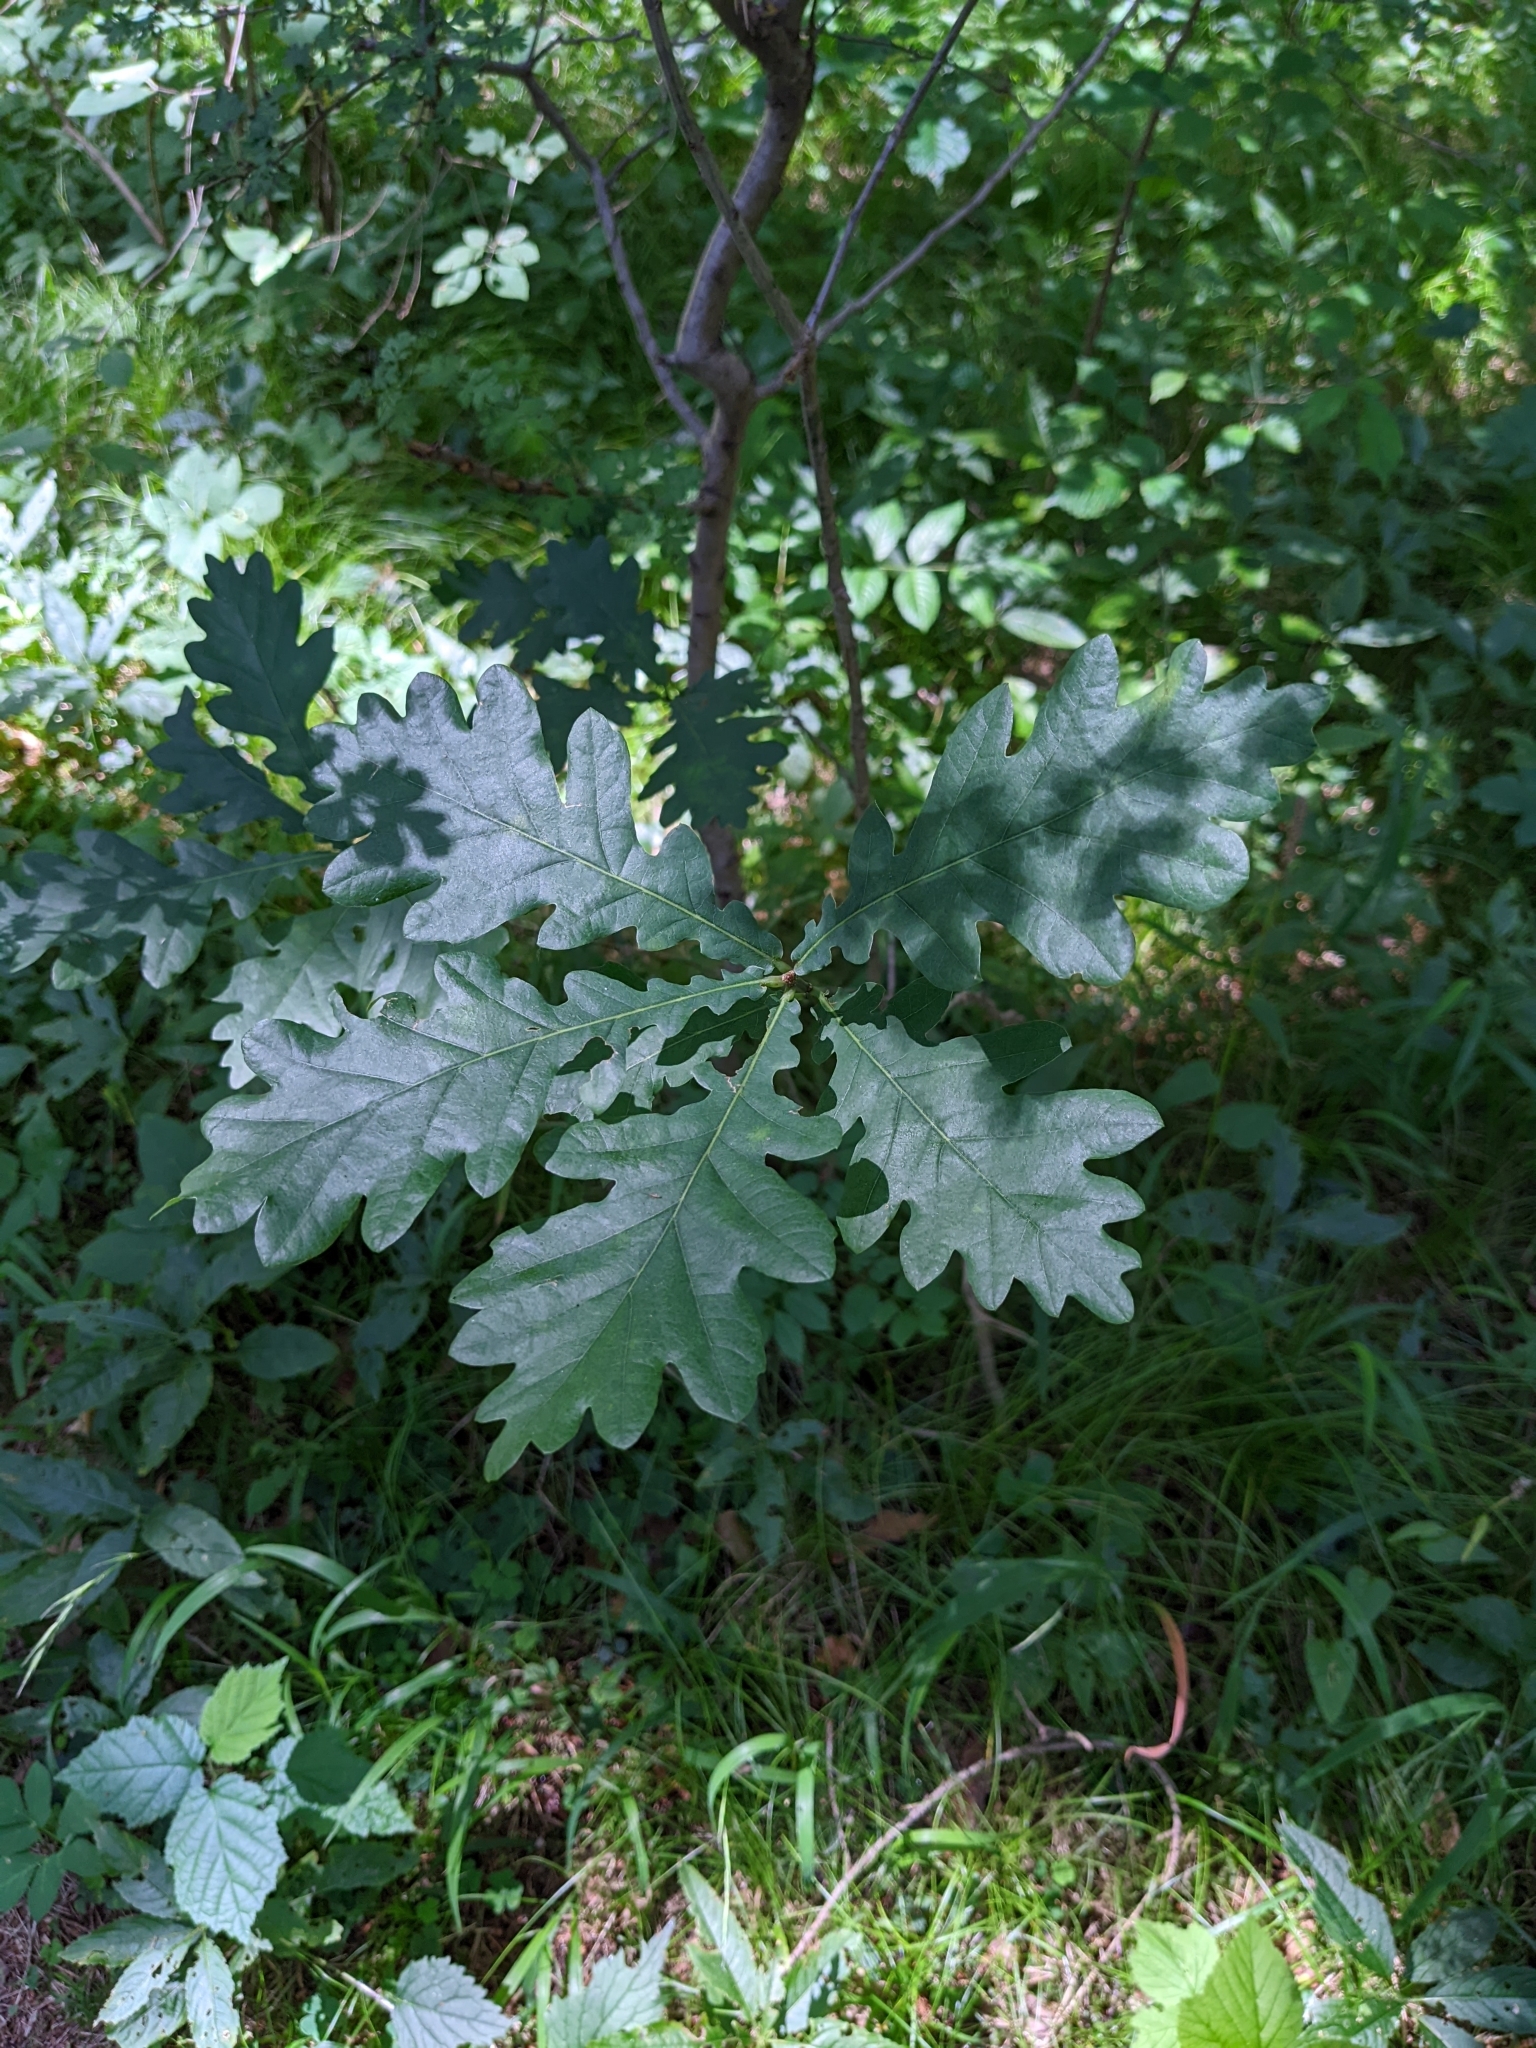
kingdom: Plantae
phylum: Tracheophyta
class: Magnoliopsida
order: Fagales
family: Fagaceae
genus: Quercus
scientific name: Quercus robur
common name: Pedunculate oak
